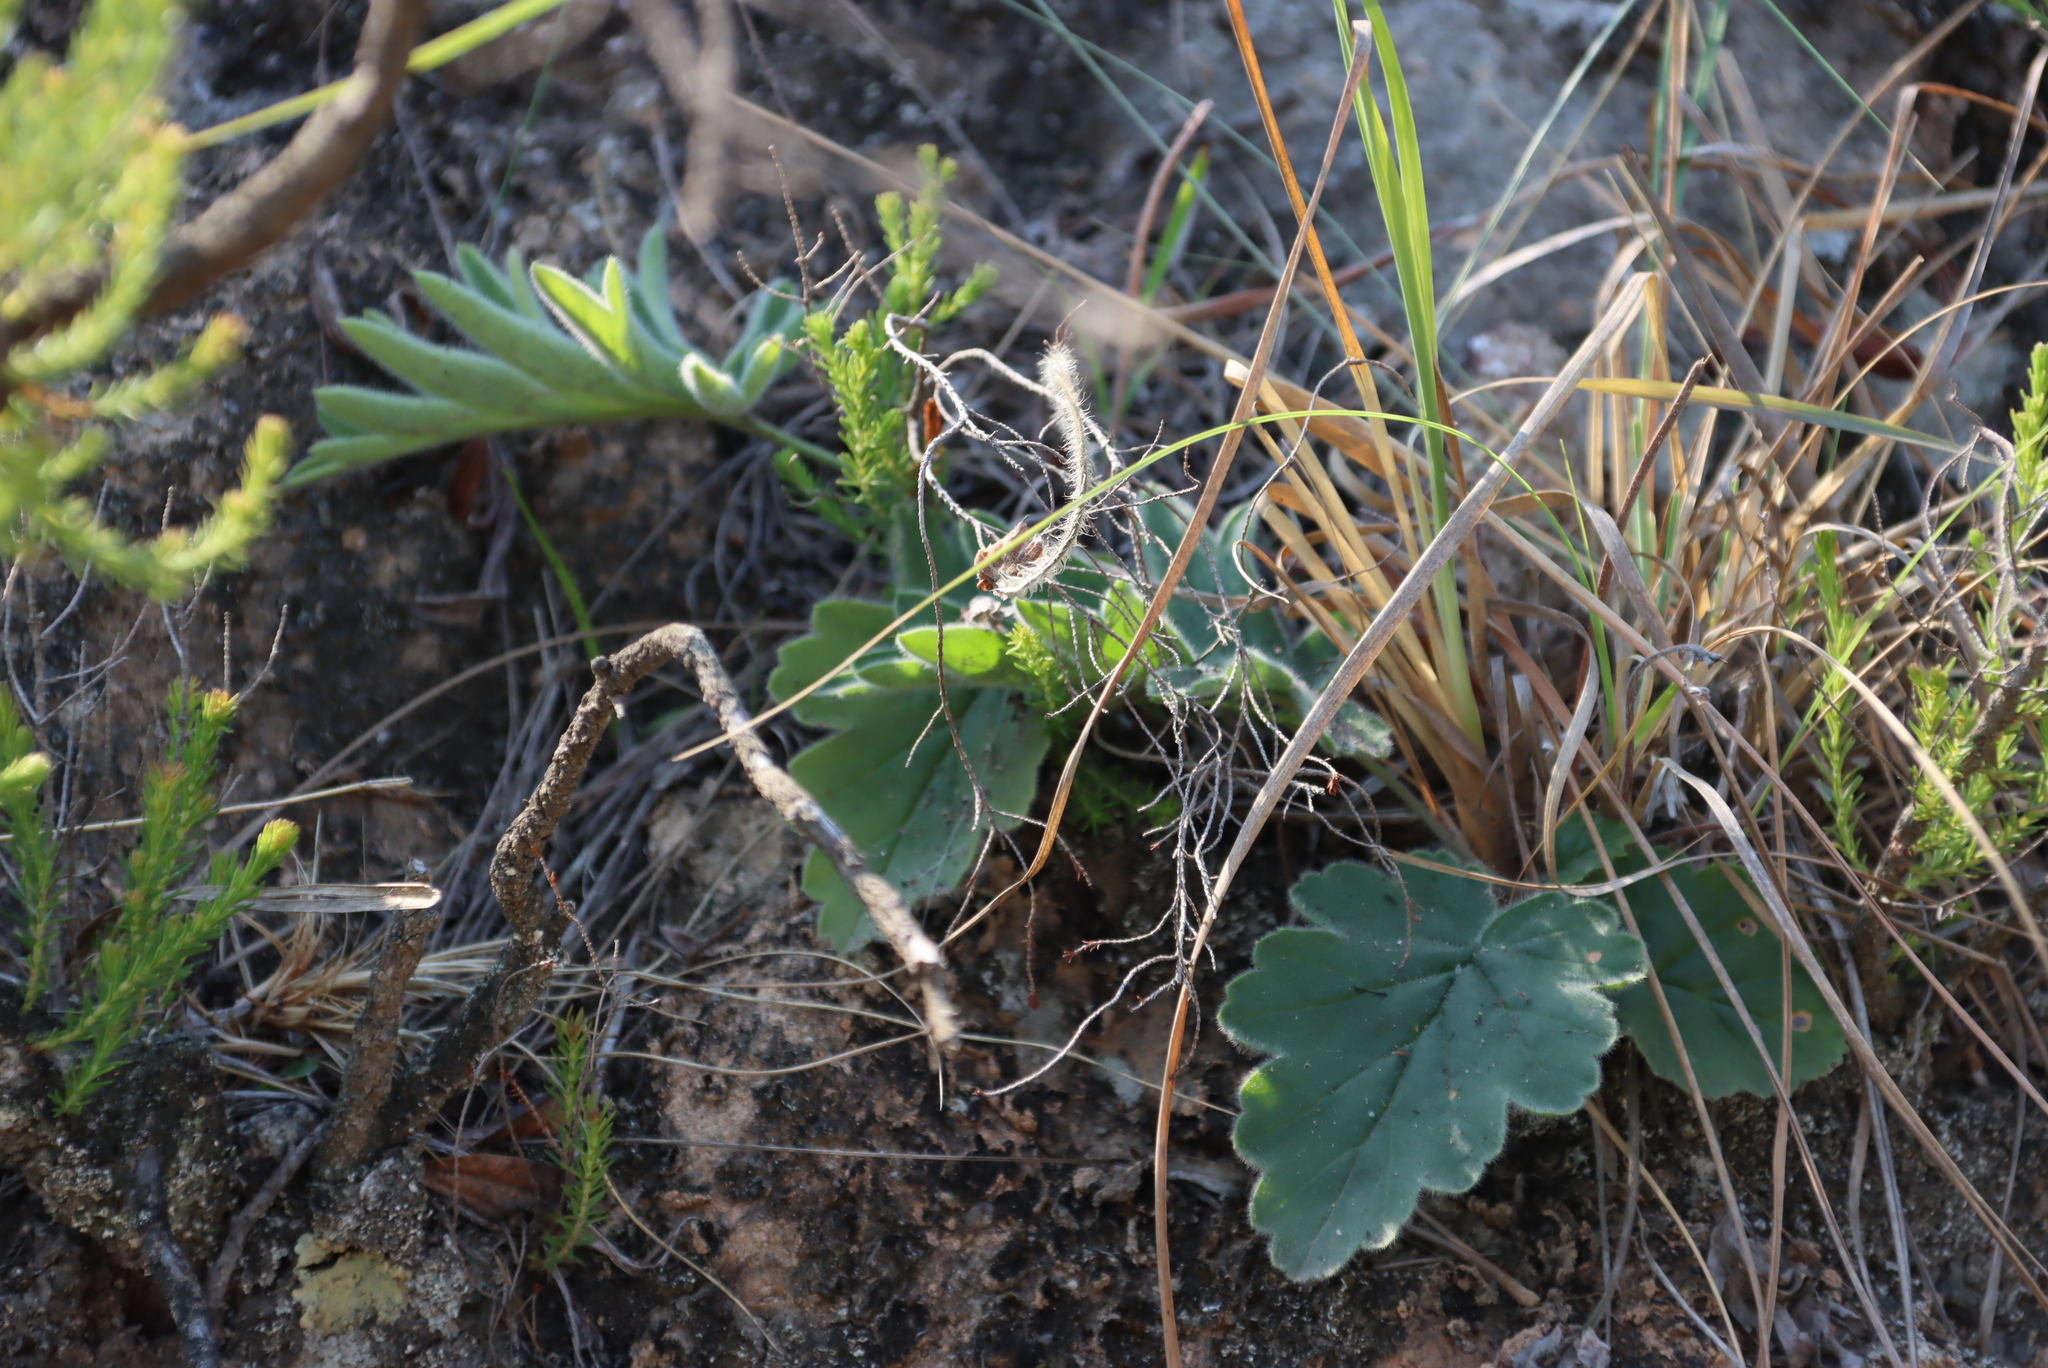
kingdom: Plantae
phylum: Tracheophyta
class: Magnoliopsida
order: Geraniales
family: Geraniaceae
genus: Pelargonium
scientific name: Pelargonium luridum
